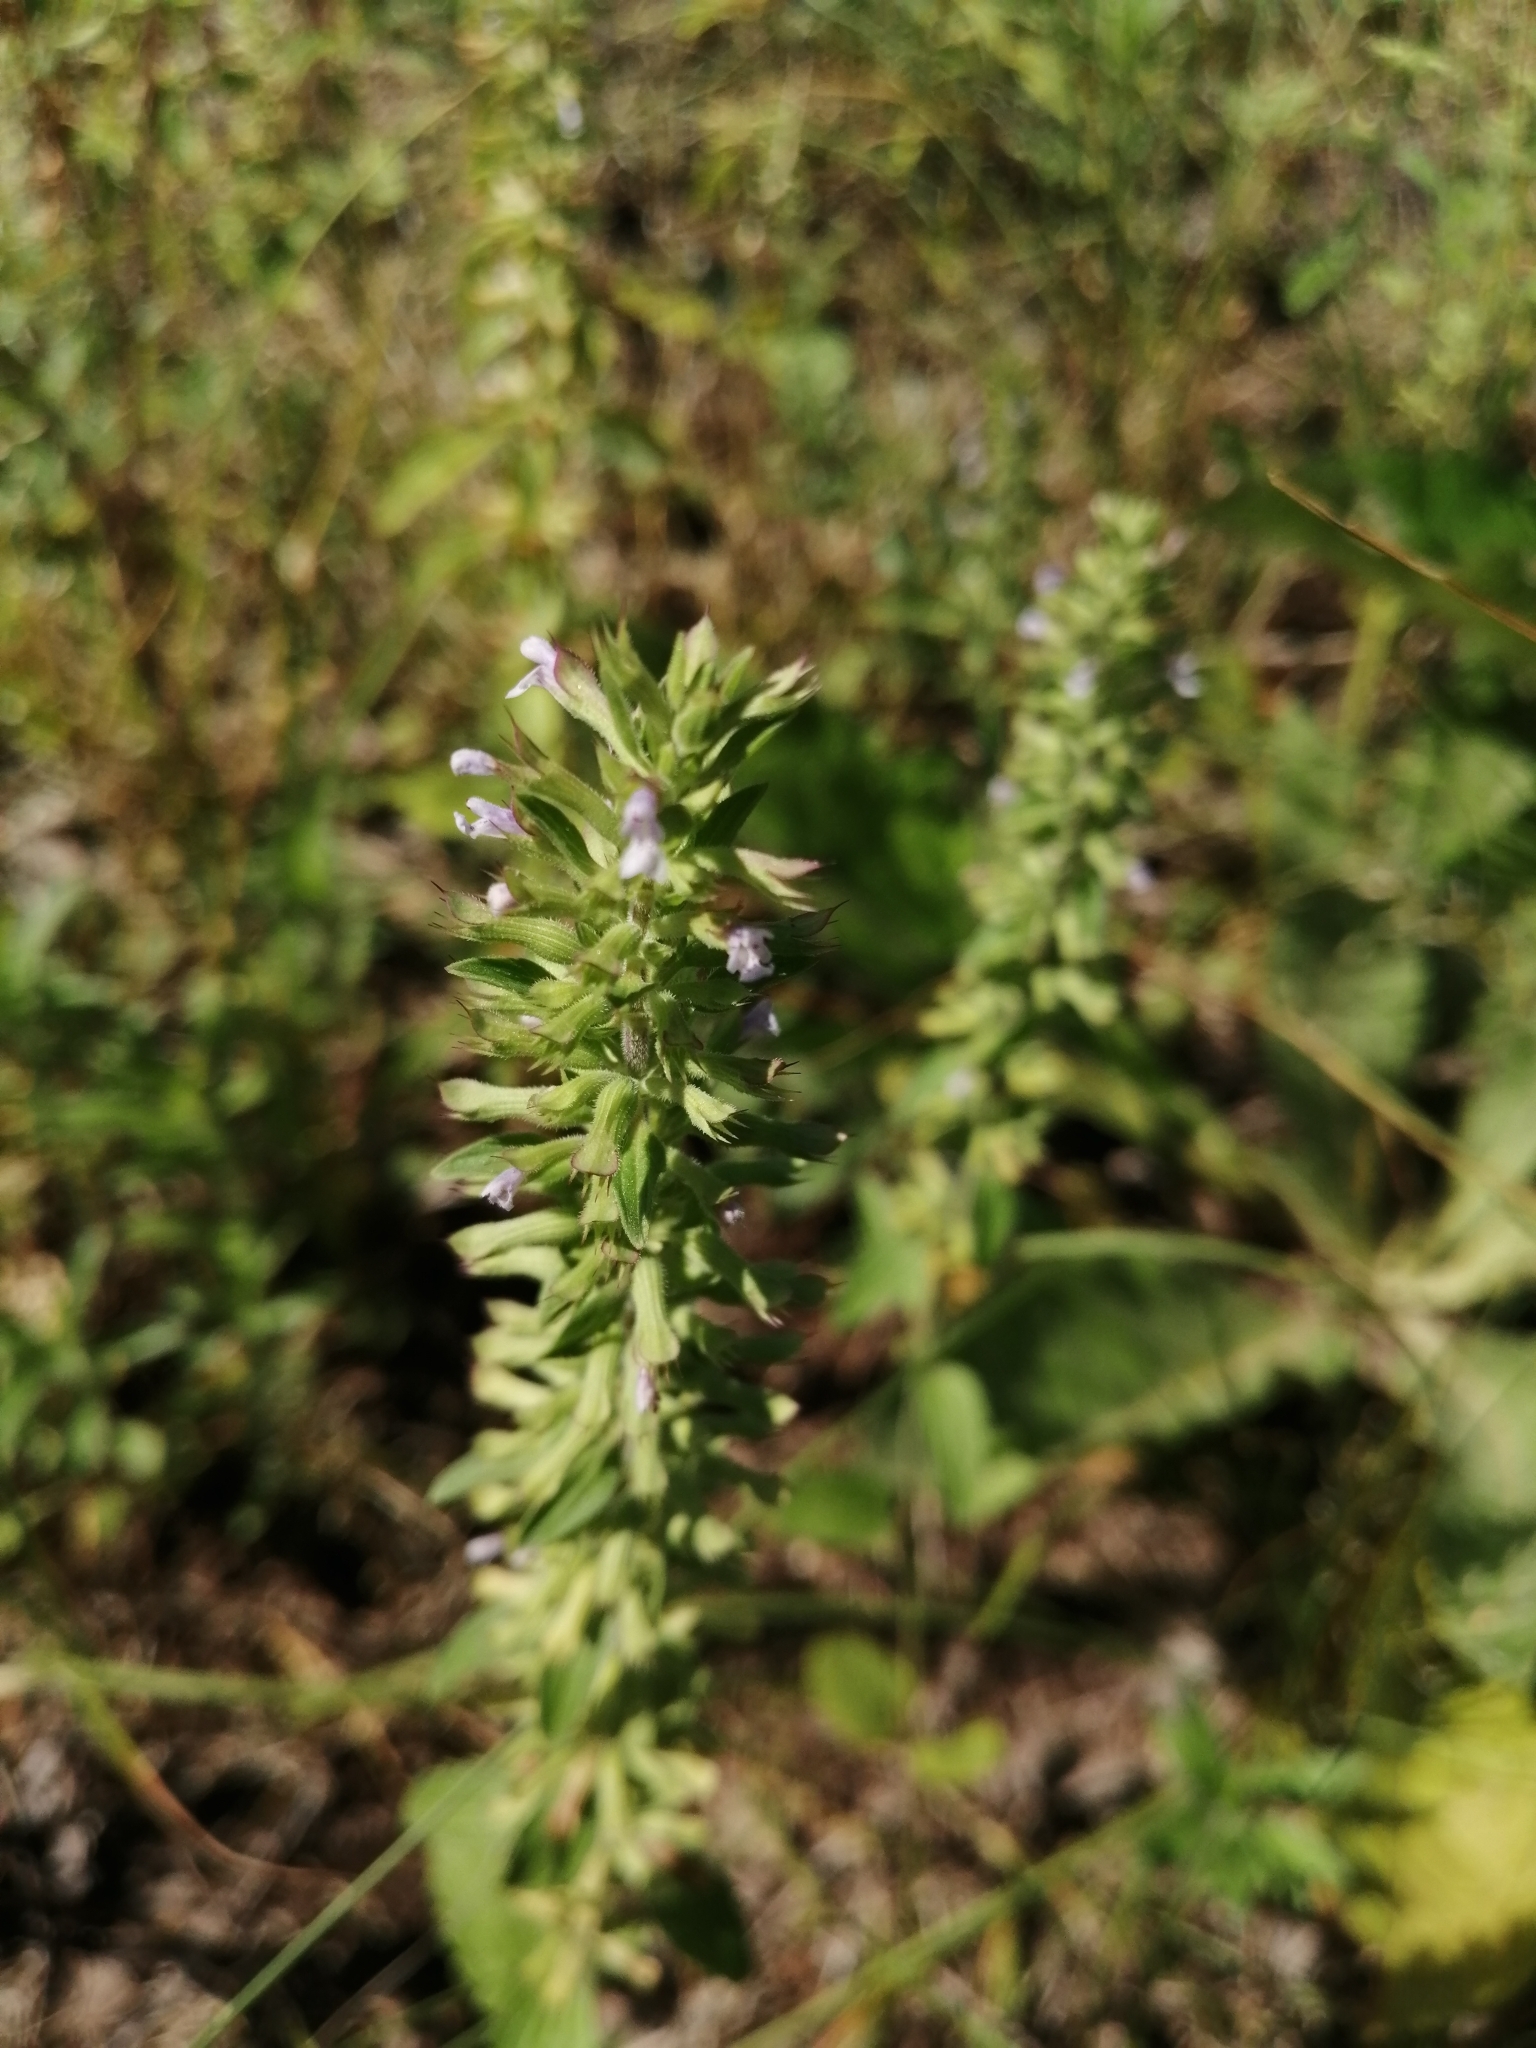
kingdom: Plantae
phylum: Tracheophyta
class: Magnoliopsida
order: Lamiales
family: Lamiaceae
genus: Dracocephalum
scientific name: Dracocephalum thymiflorum
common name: Thymeleaf dragonhead
